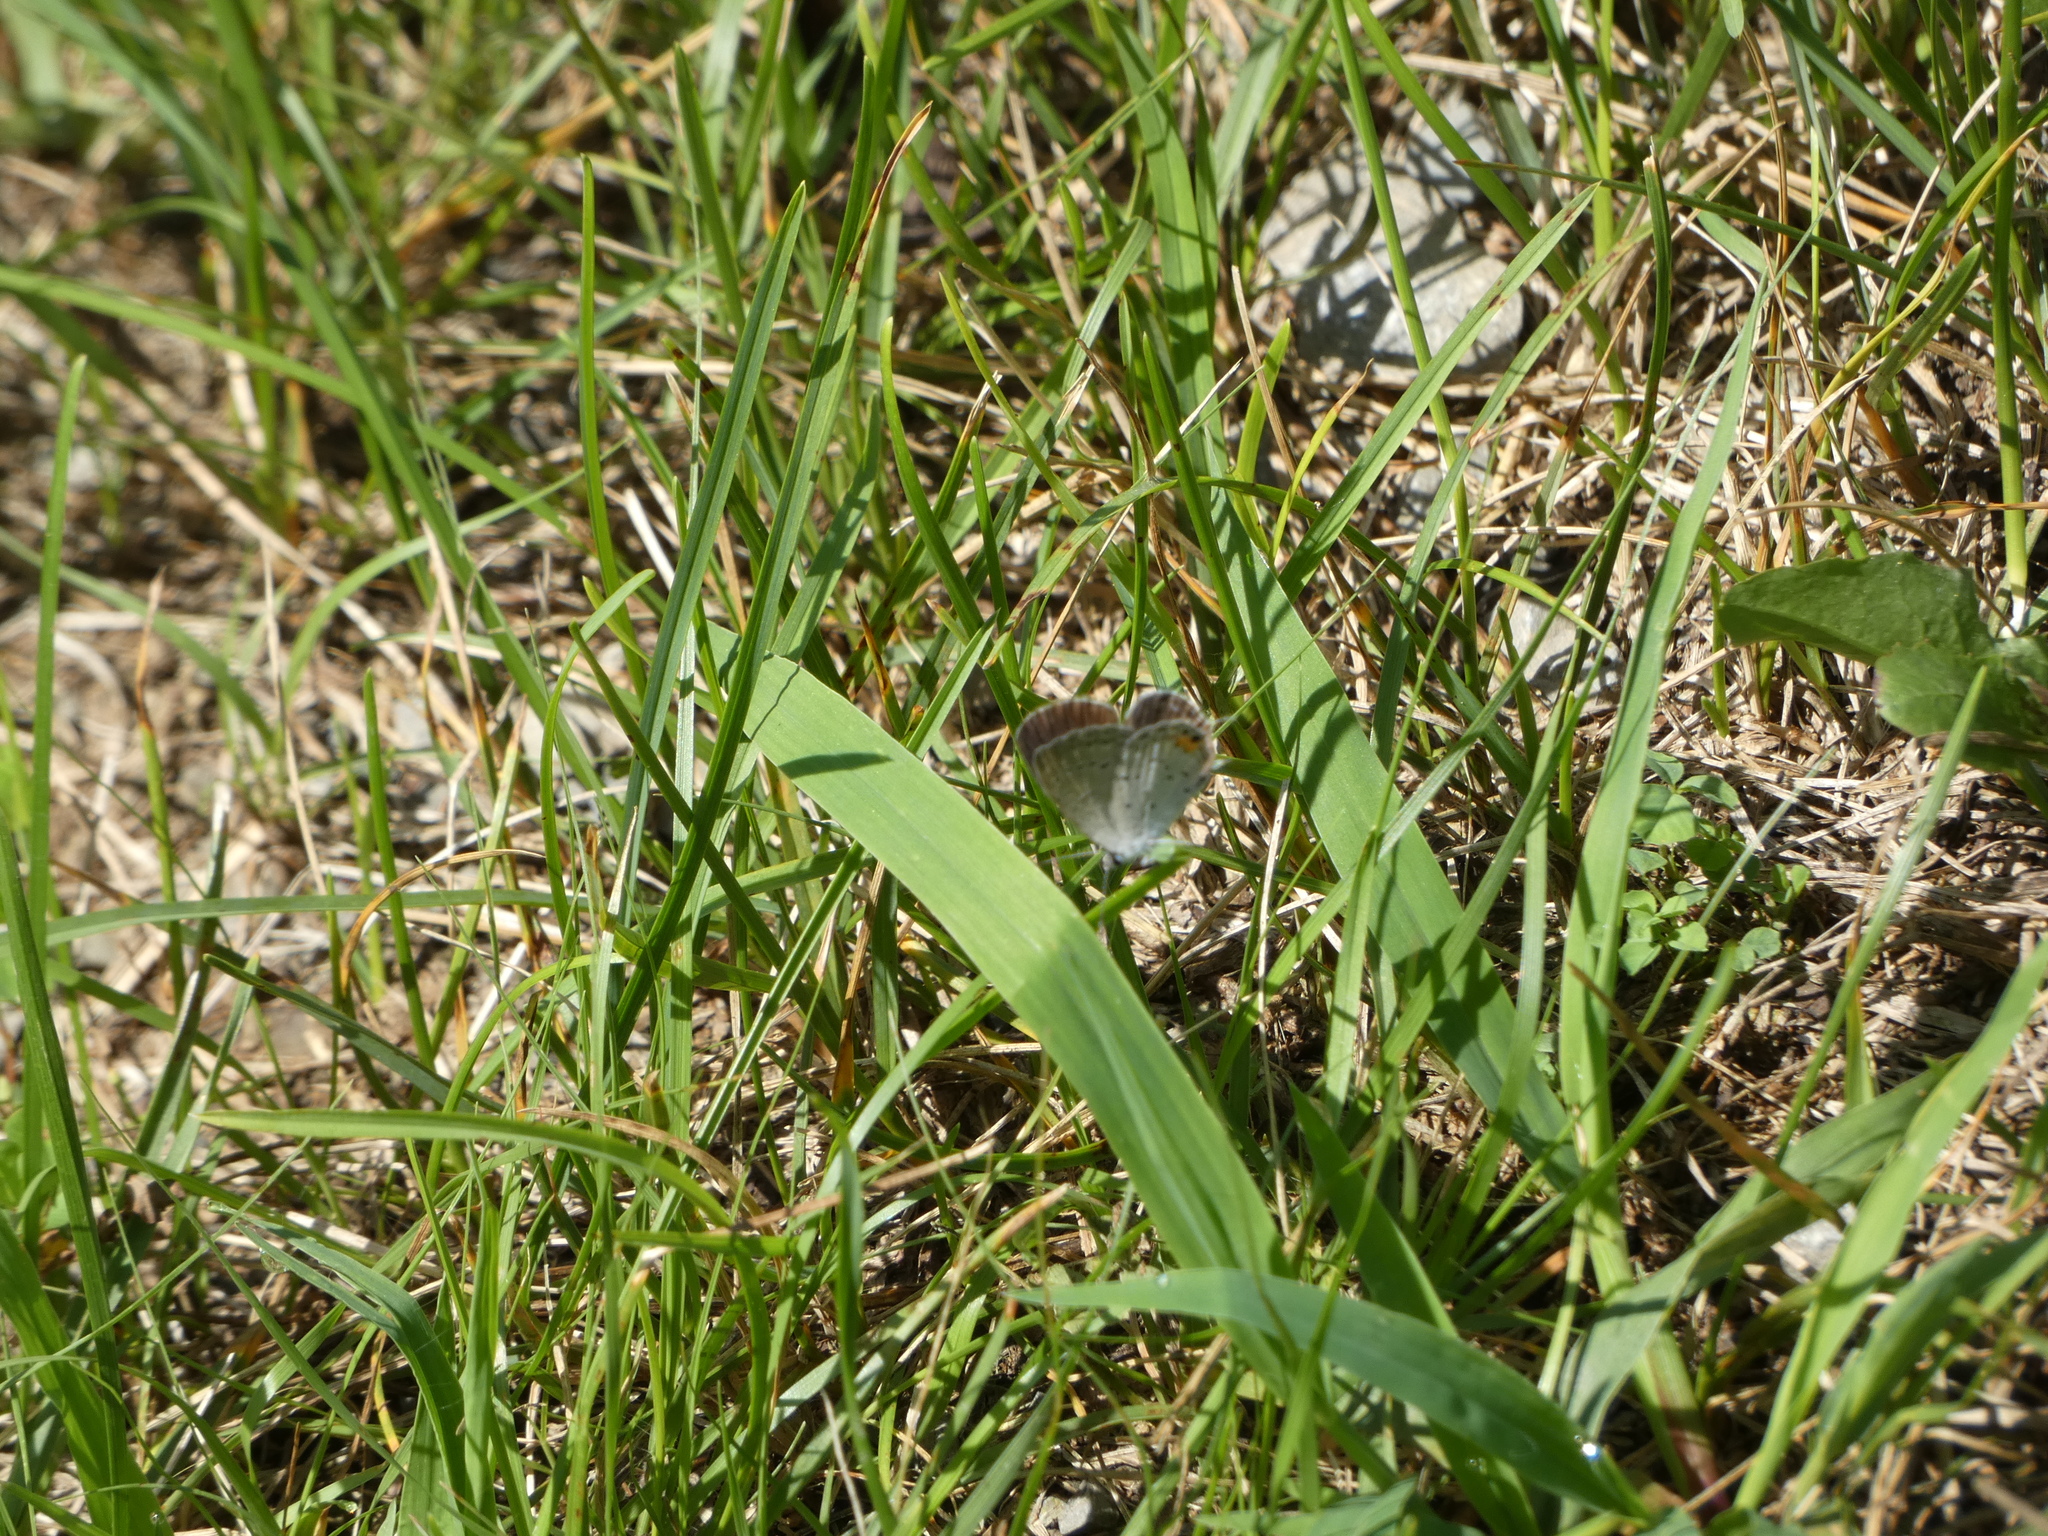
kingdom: Animalia
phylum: Arthropoda
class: Insecta
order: Lepidoptera
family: Lycaenidae
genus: Elkalyce
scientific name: Elkalyce comyntas
